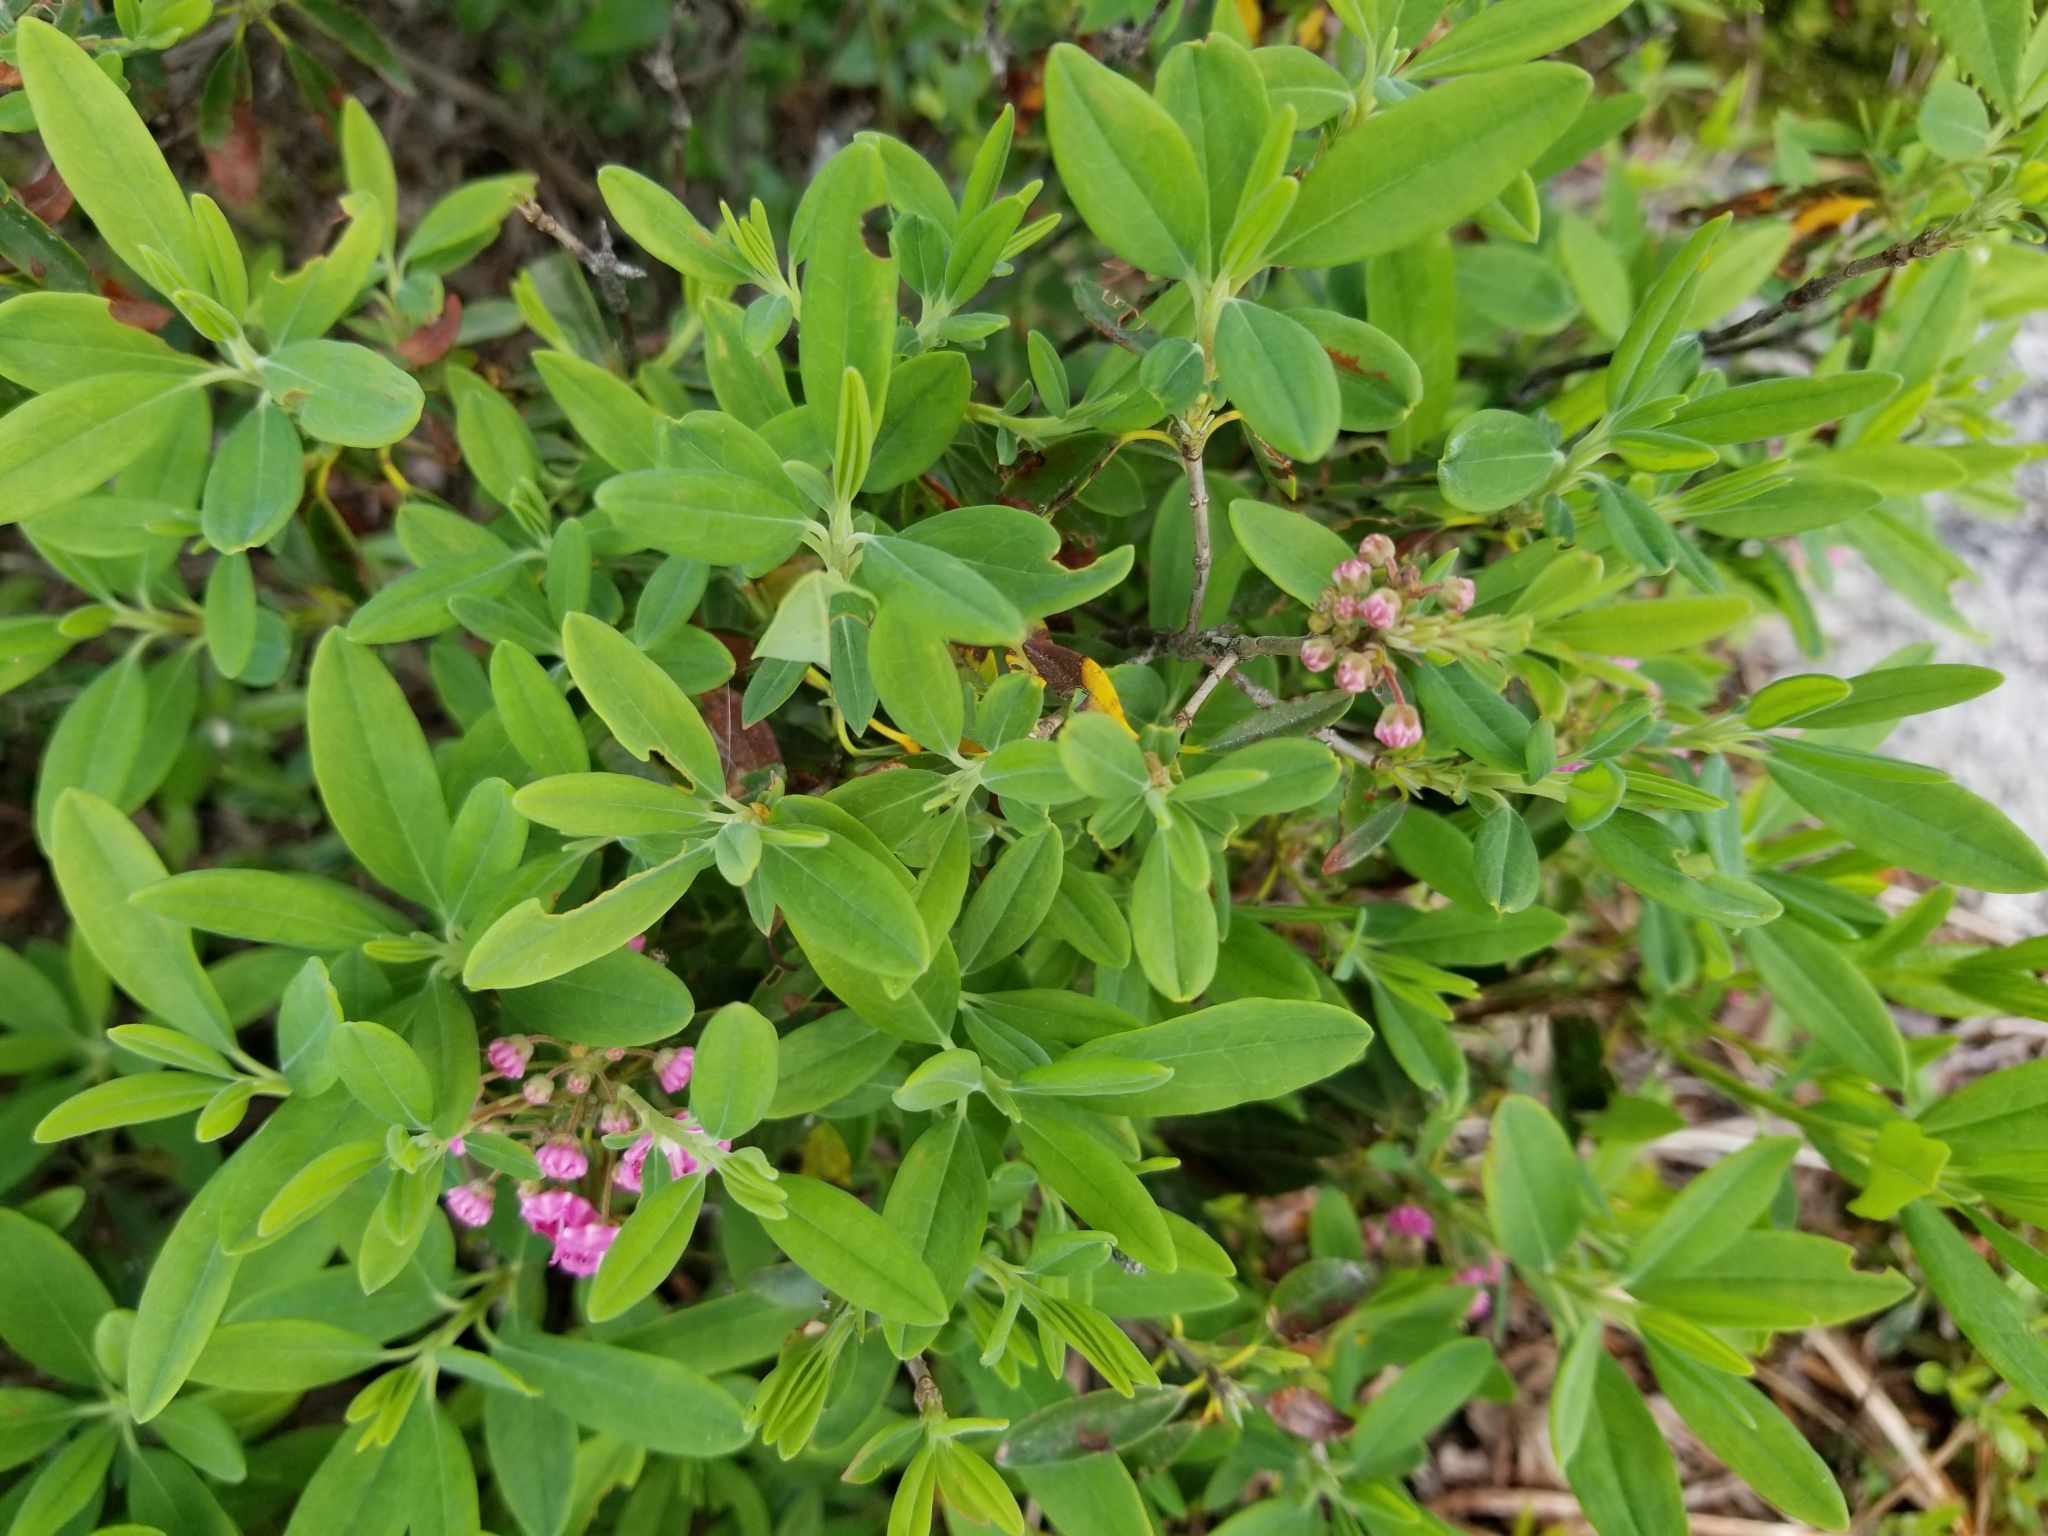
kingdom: Plantae
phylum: Tracheophyta
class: Magnoliopsida
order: Ericales
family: Ericaceae
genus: Kalmia
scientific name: Kalmia angustifolia
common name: Sheep-laurel
